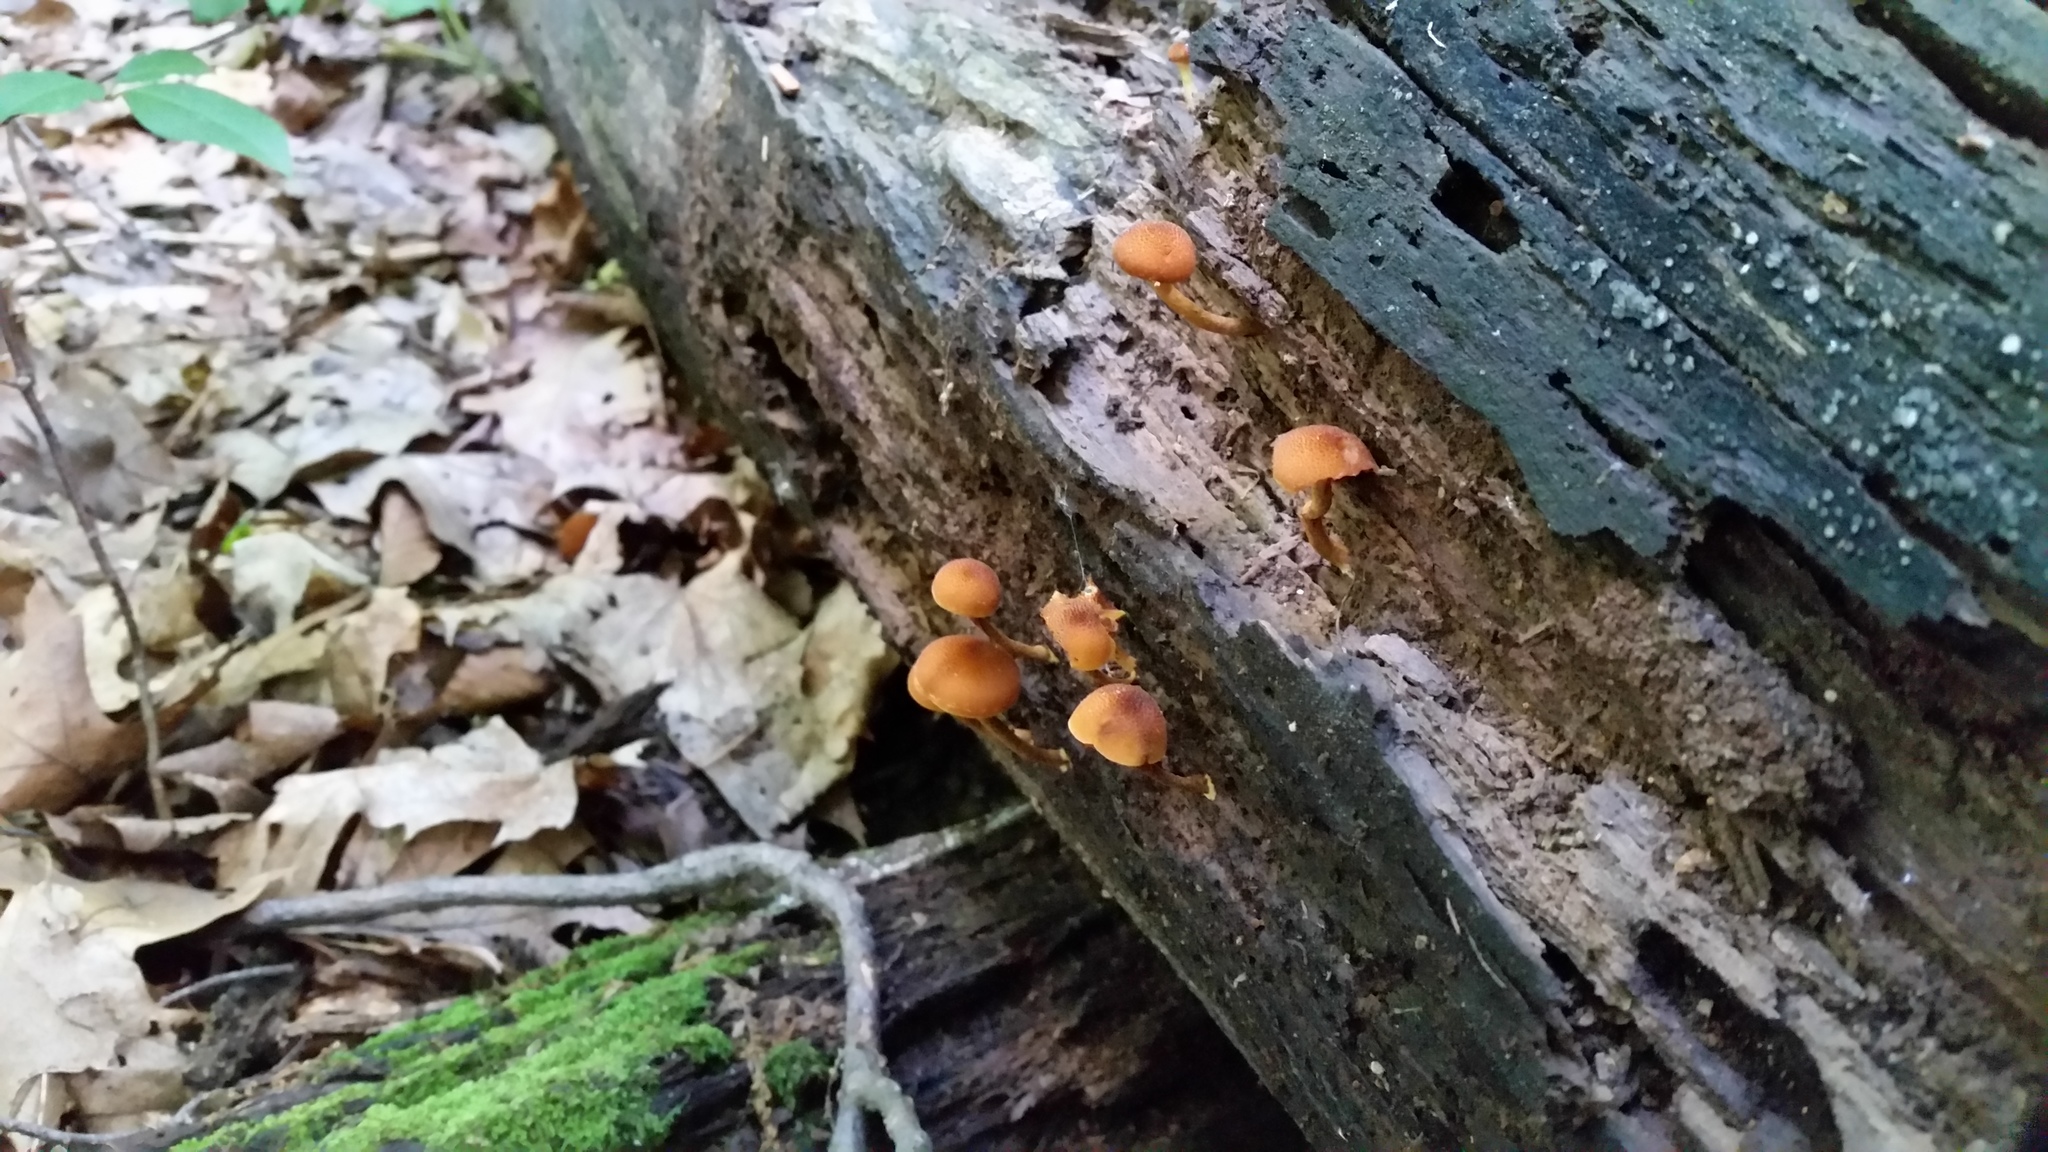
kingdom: Fungi
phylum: Basidiomycota
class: Agaricomycetes
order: Agaricales
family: Strophariaceae
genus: Pholiota
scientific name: Pholiota granulosa
